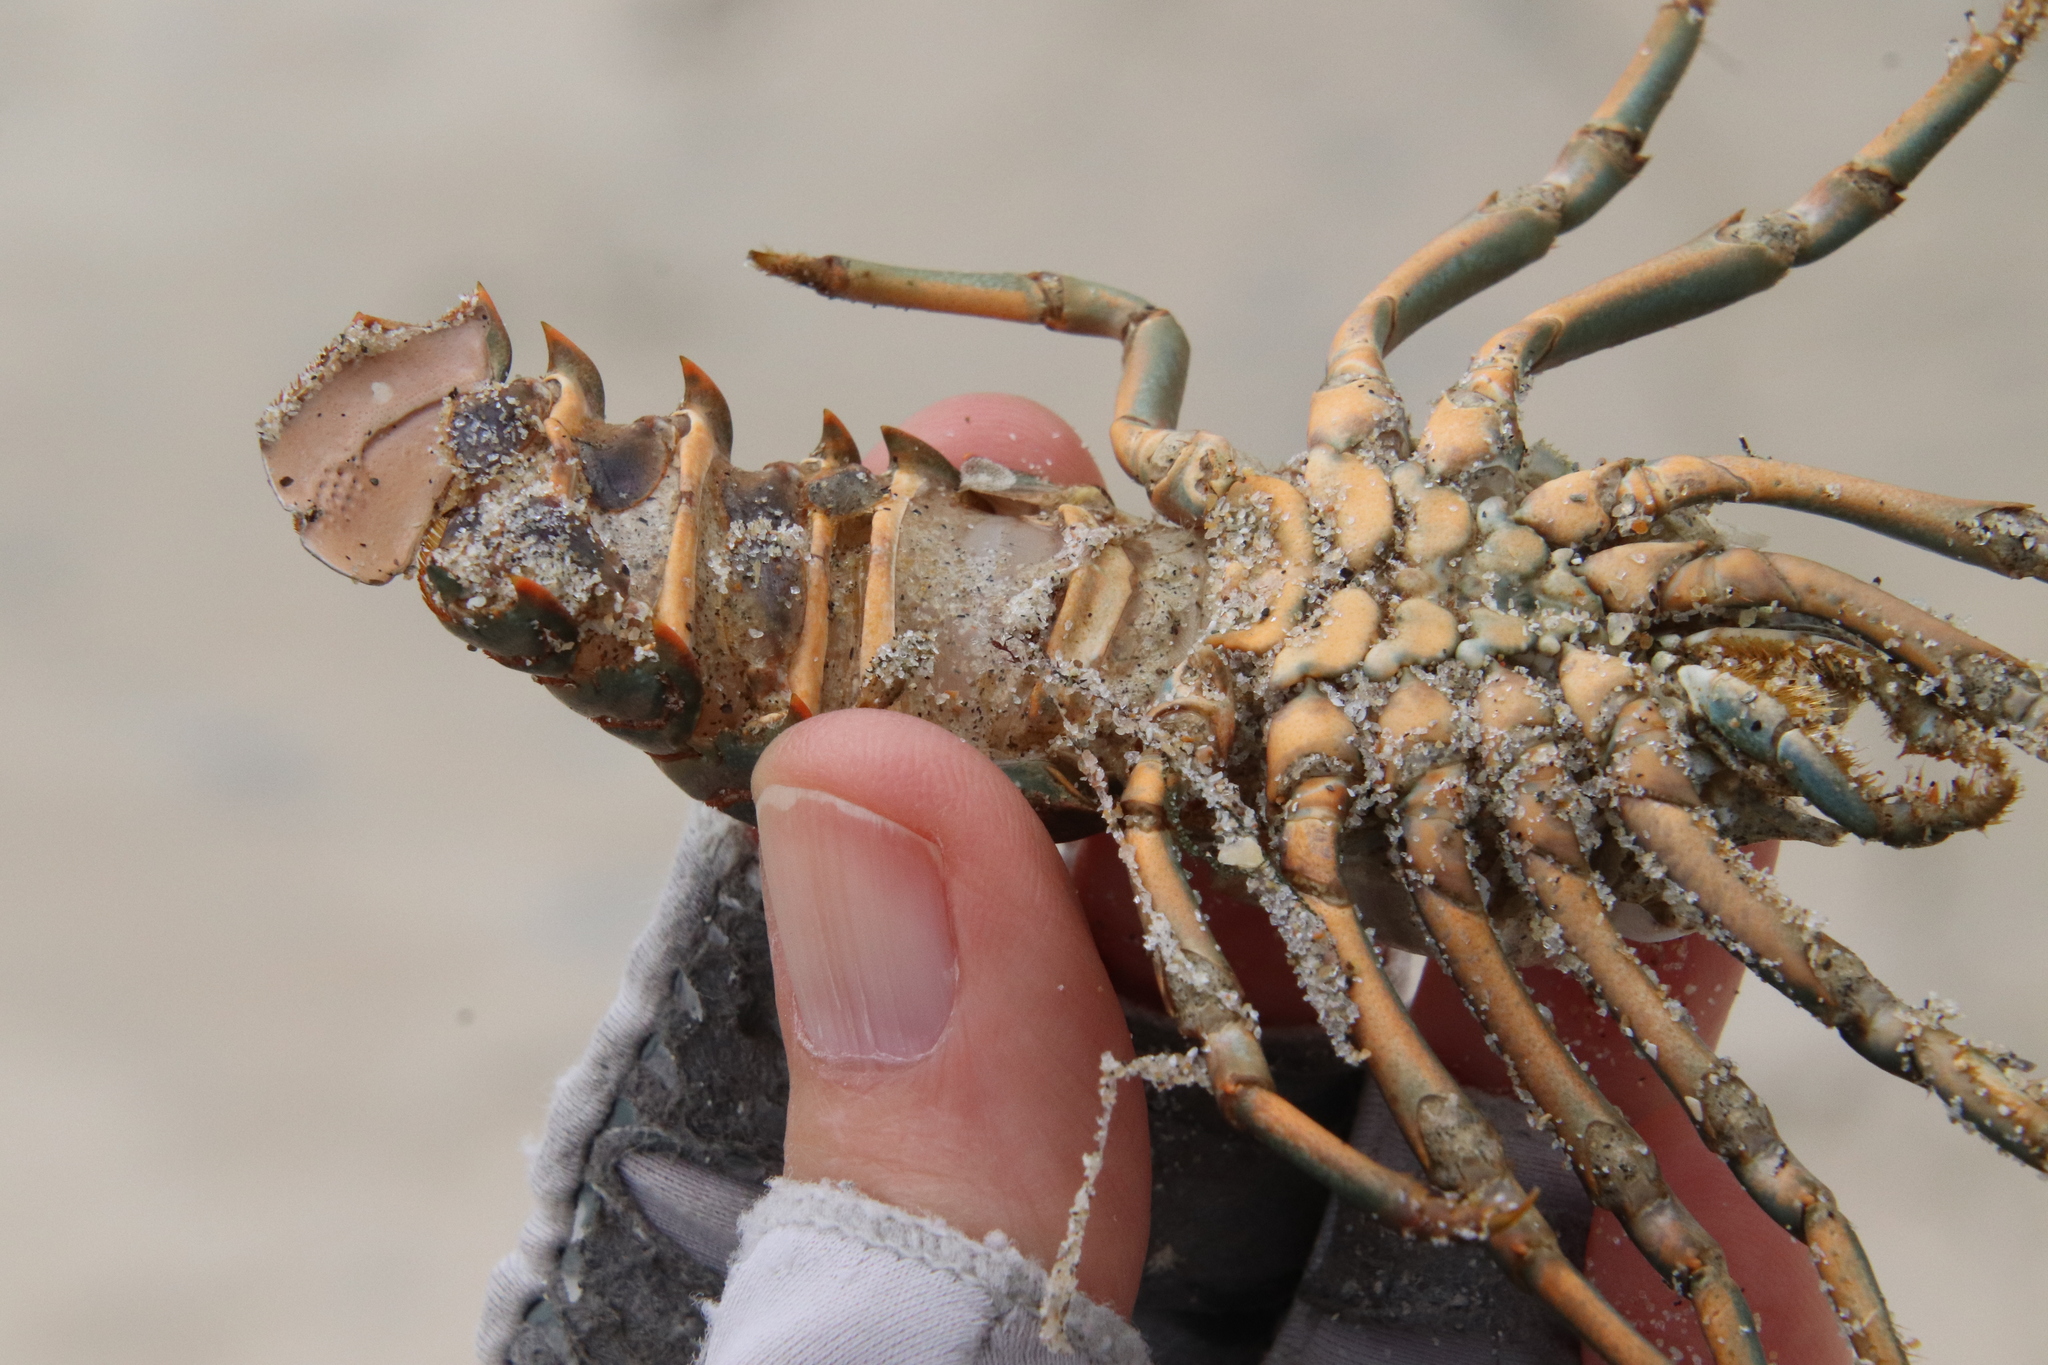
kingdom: Animalia
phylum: Arthropoda
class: Malacostraca
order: Decapoda
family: Palinuridae
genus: Panulirus
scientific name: Panulirus interruptus
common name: California spiny lobster
